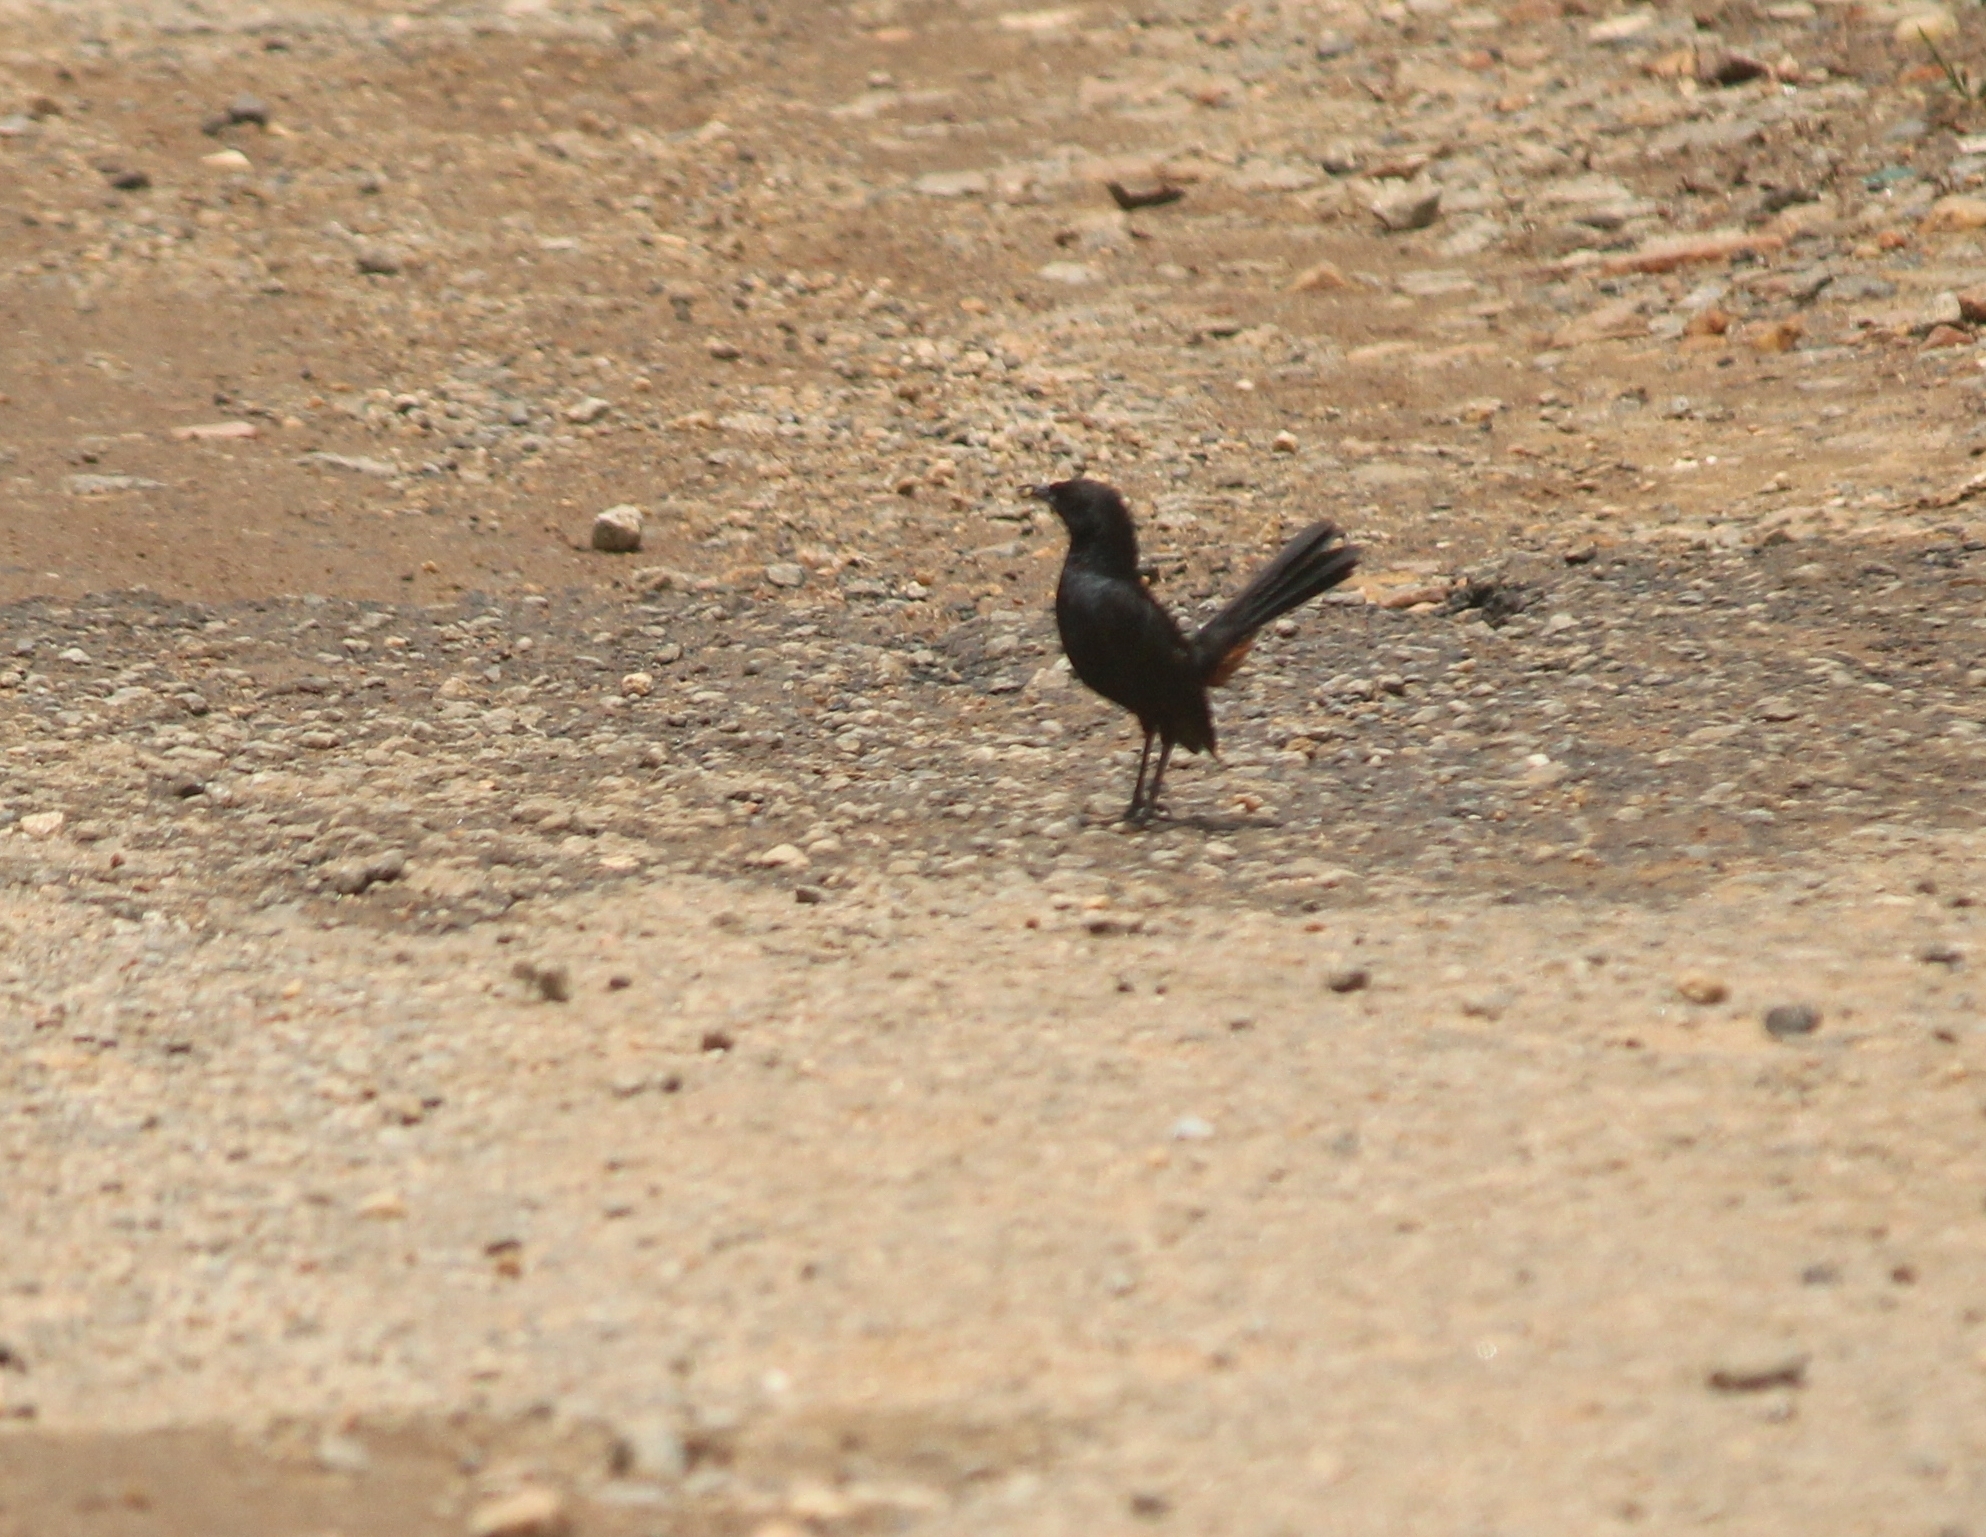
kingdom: Animalia
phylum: Chordata
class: Aves
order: Passeriformes
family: Muscicapidae
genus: Saxicoloides
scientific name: Saxicoloides fulicatus
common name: Indian robin
